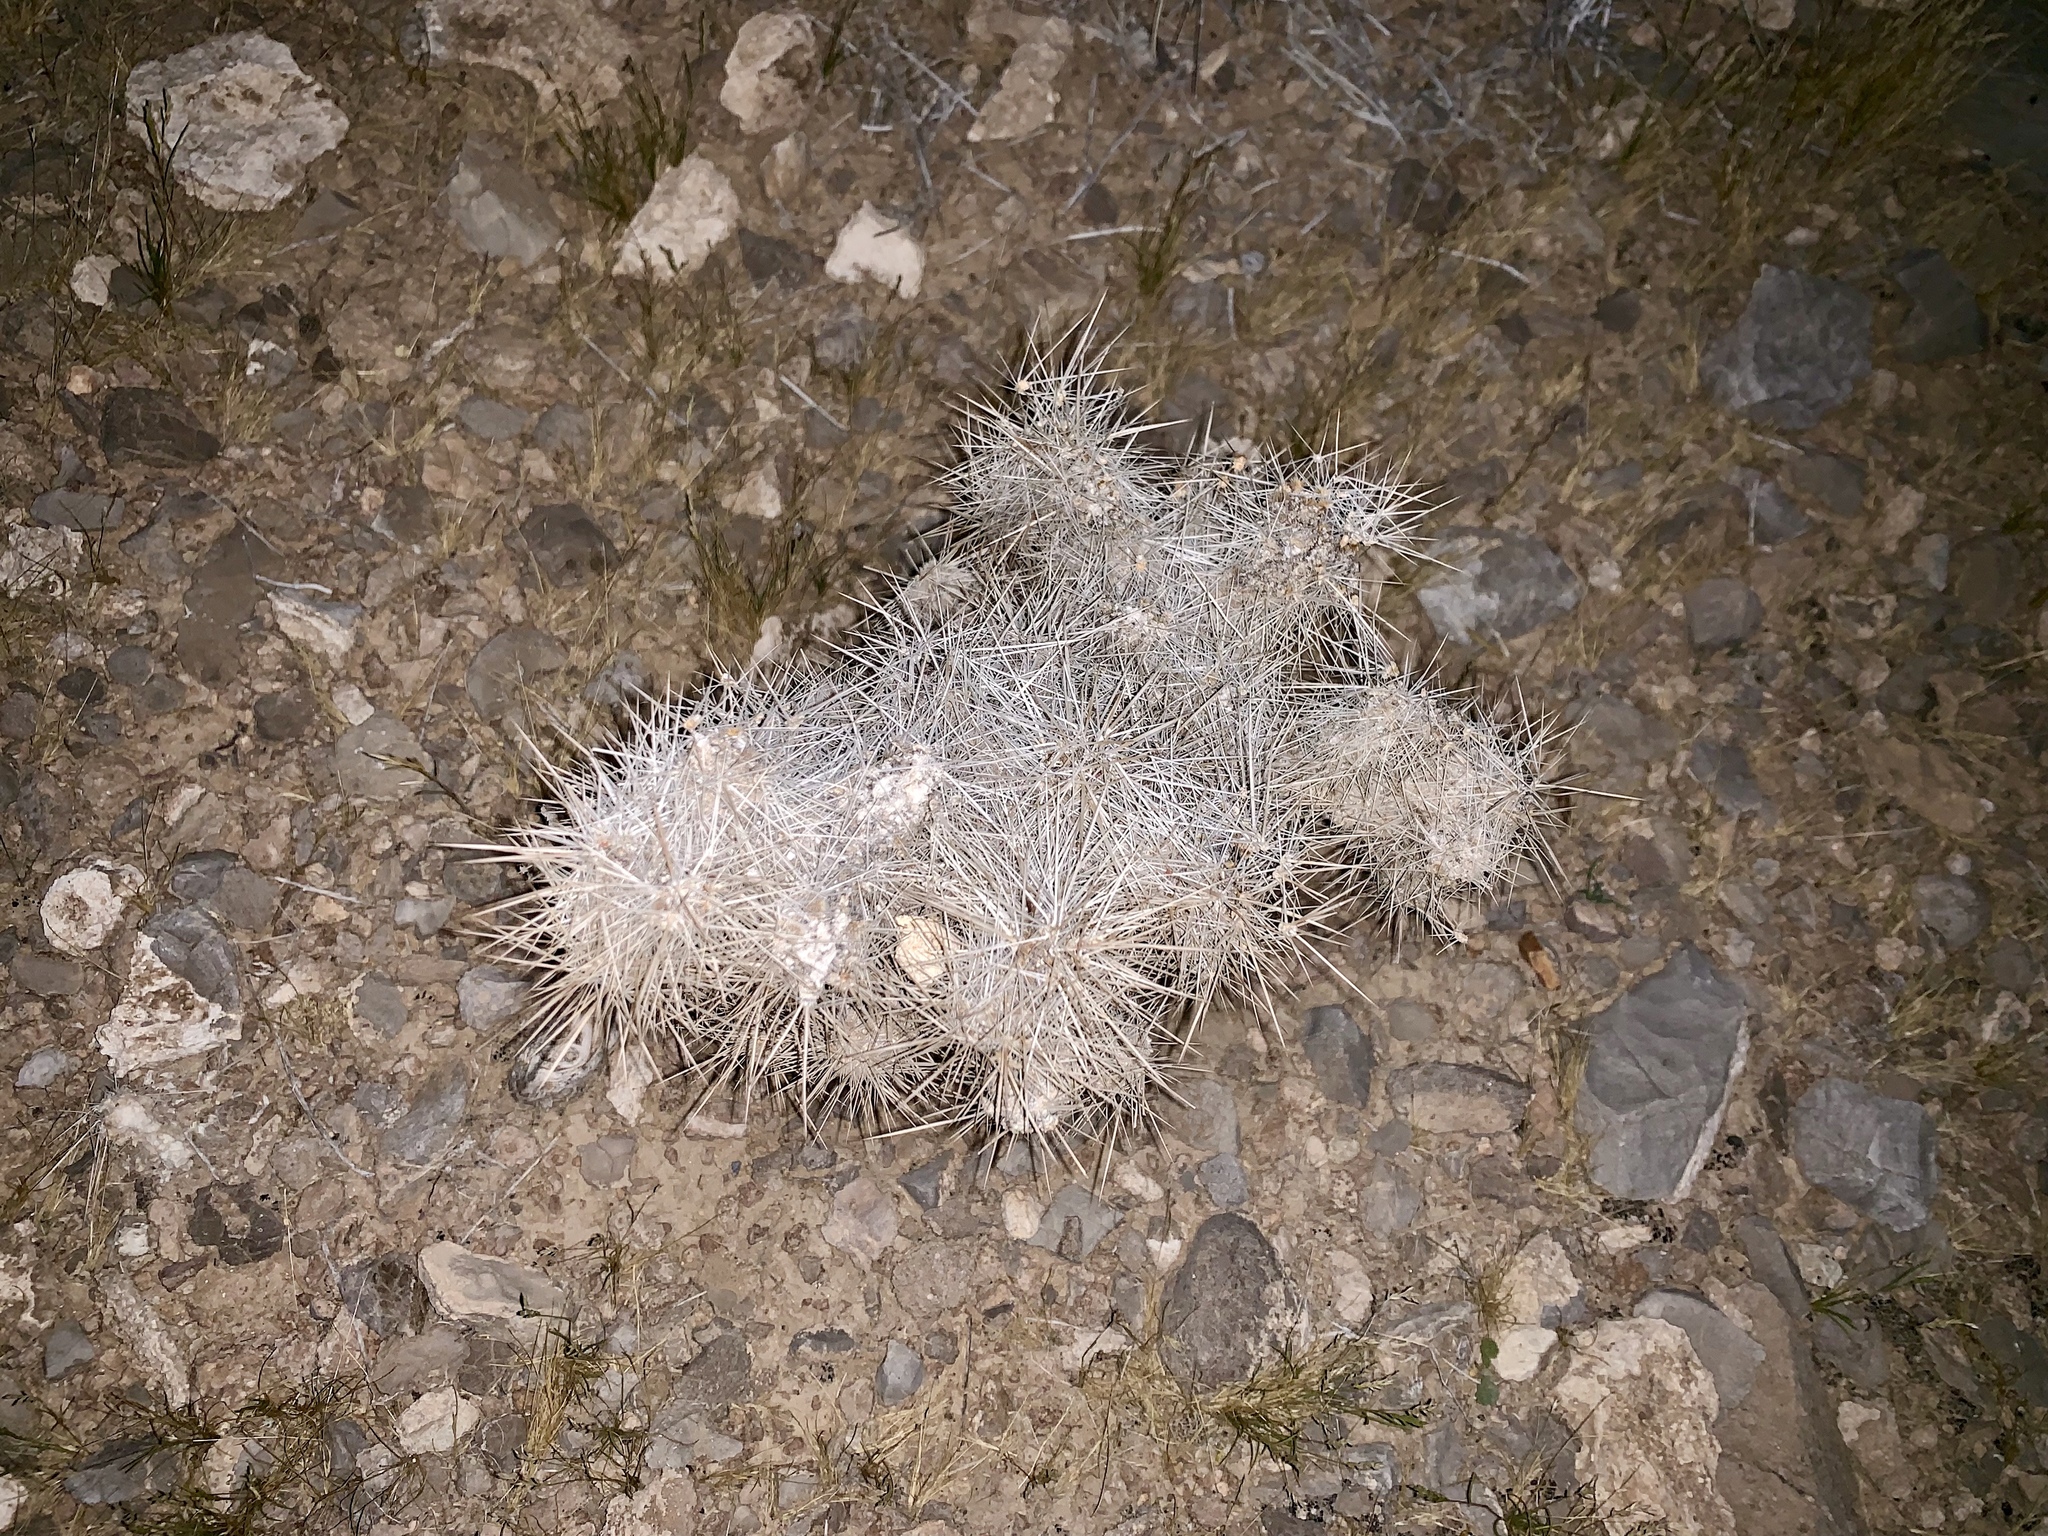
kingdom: Plantae
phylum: Tracheophyta
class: Magnoliopsida
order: Caryophyllales
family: Cactaceae
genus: Cylindropuntia
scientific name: Cylindropuntia echinocarpa
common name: Ground cholla
